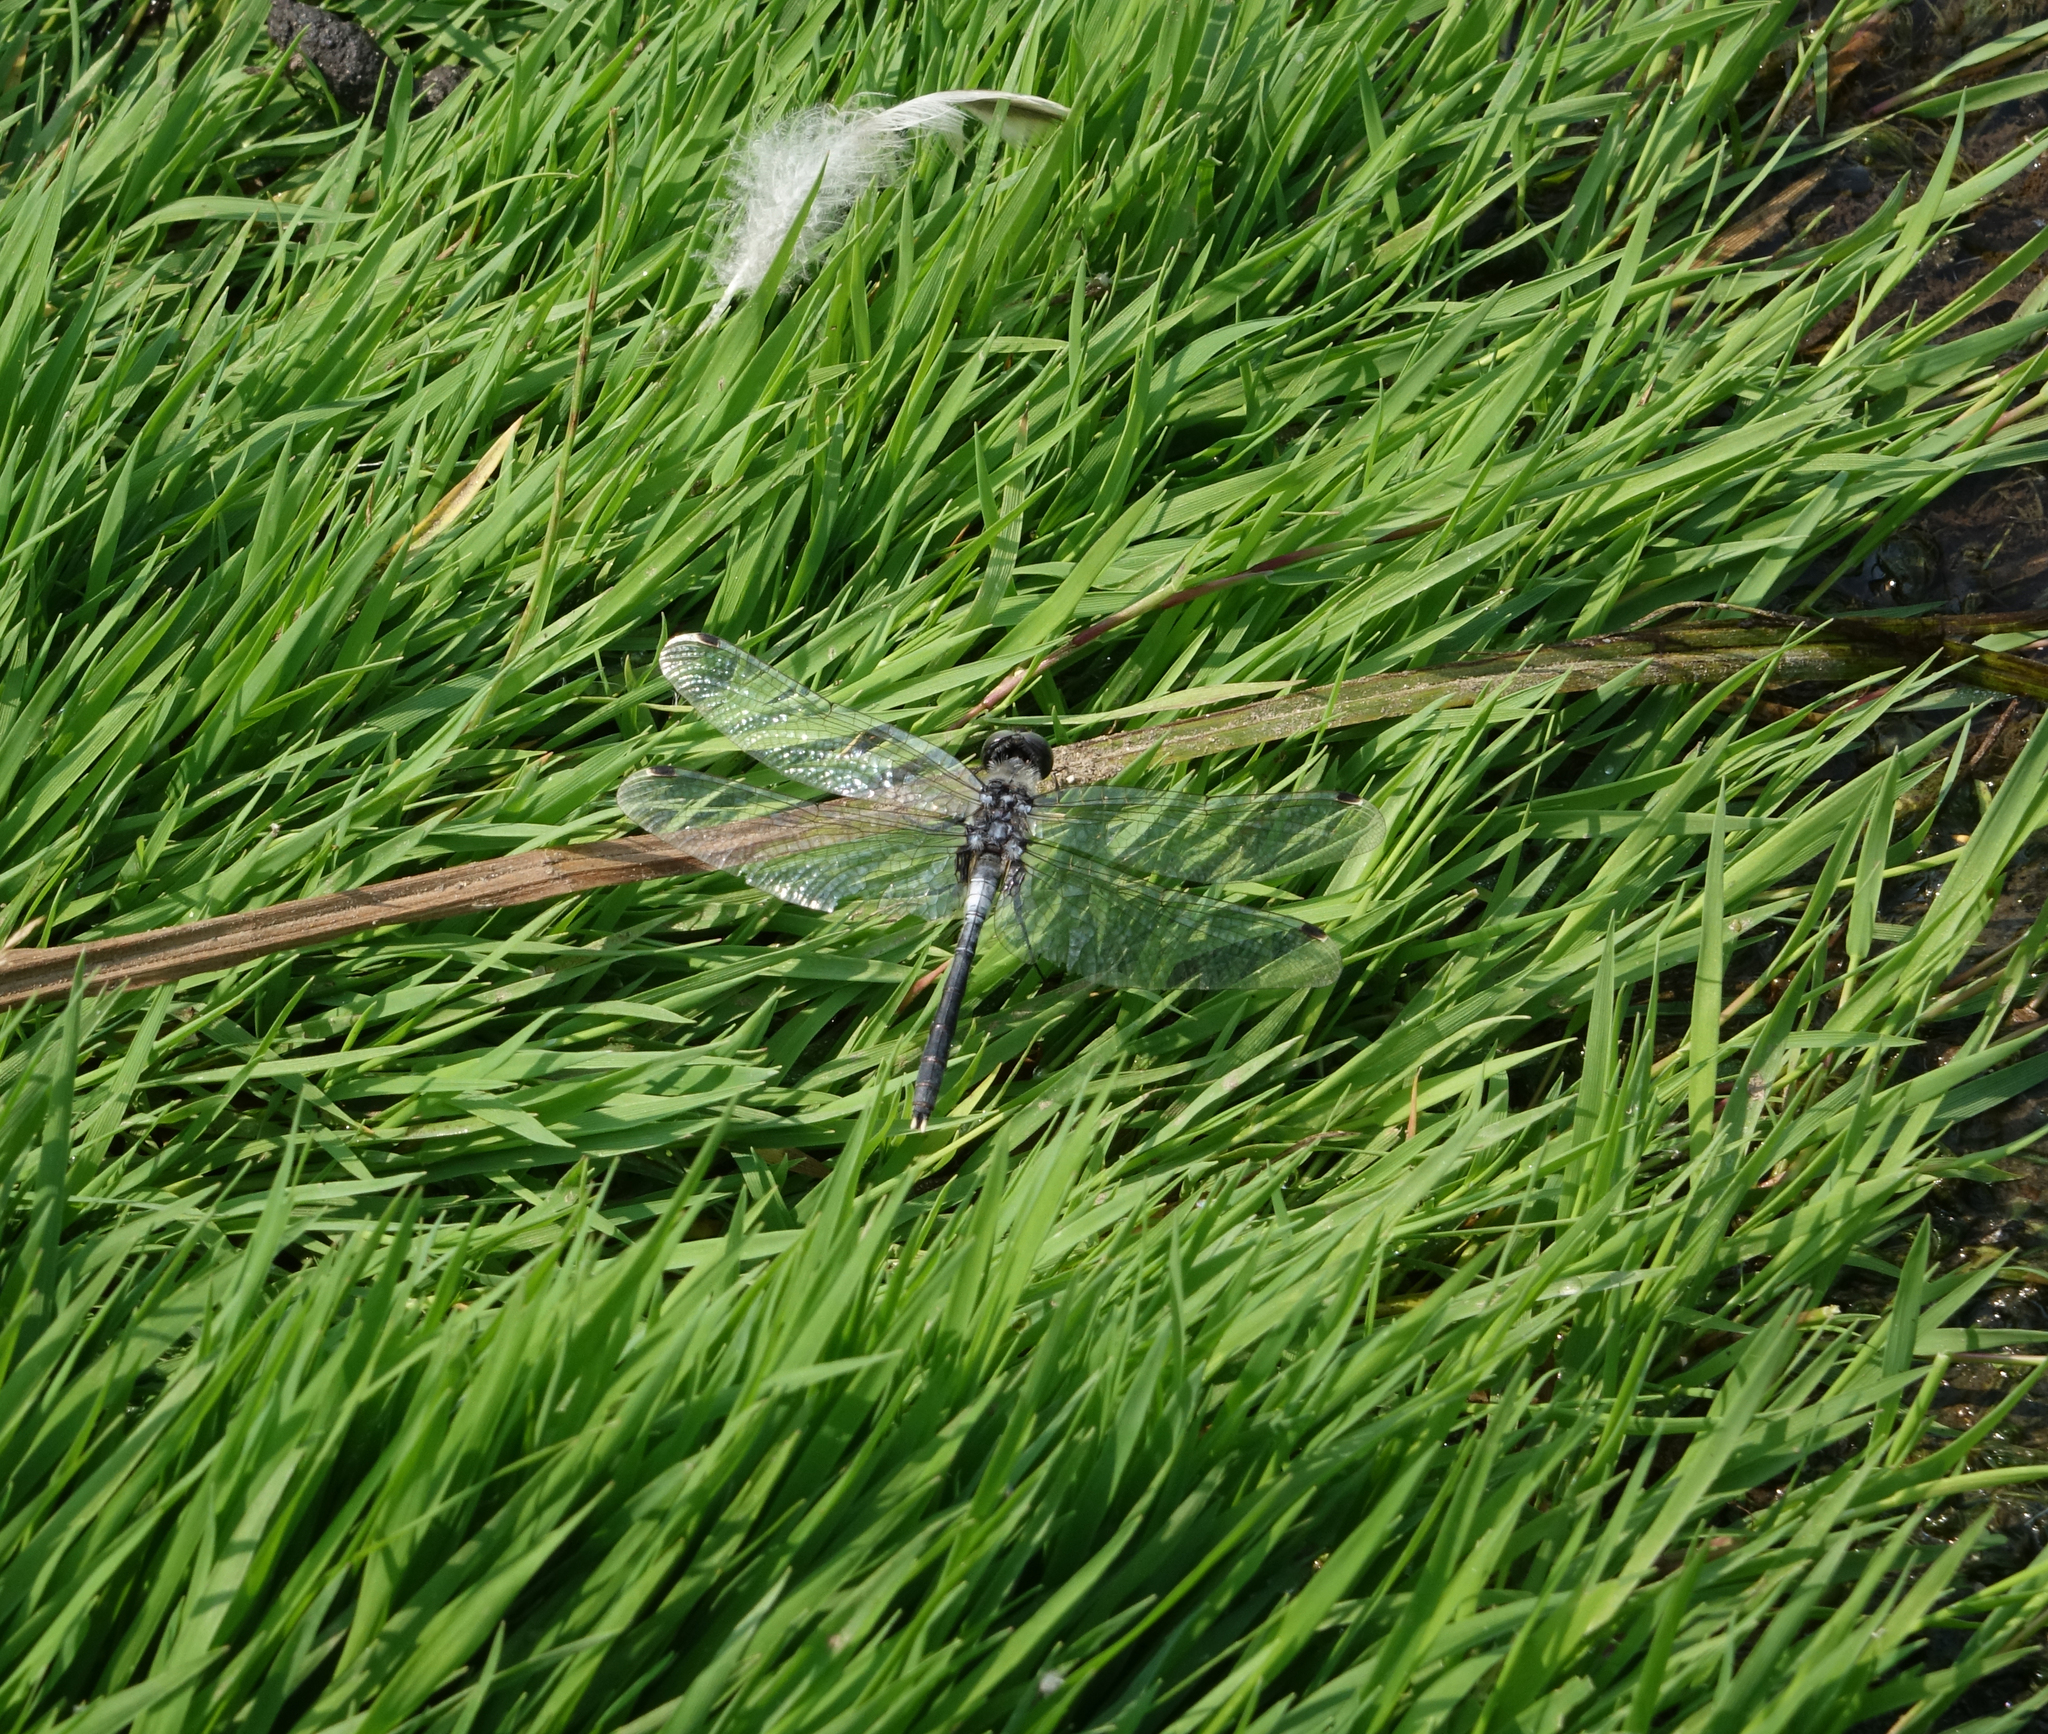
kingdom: Animalia
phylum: Arthropoda
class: Insecta
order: Odonata
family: Libellulidae
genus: Leucorrhinia
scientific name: Leucorrhinia albifrons
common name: Dark whiteface
